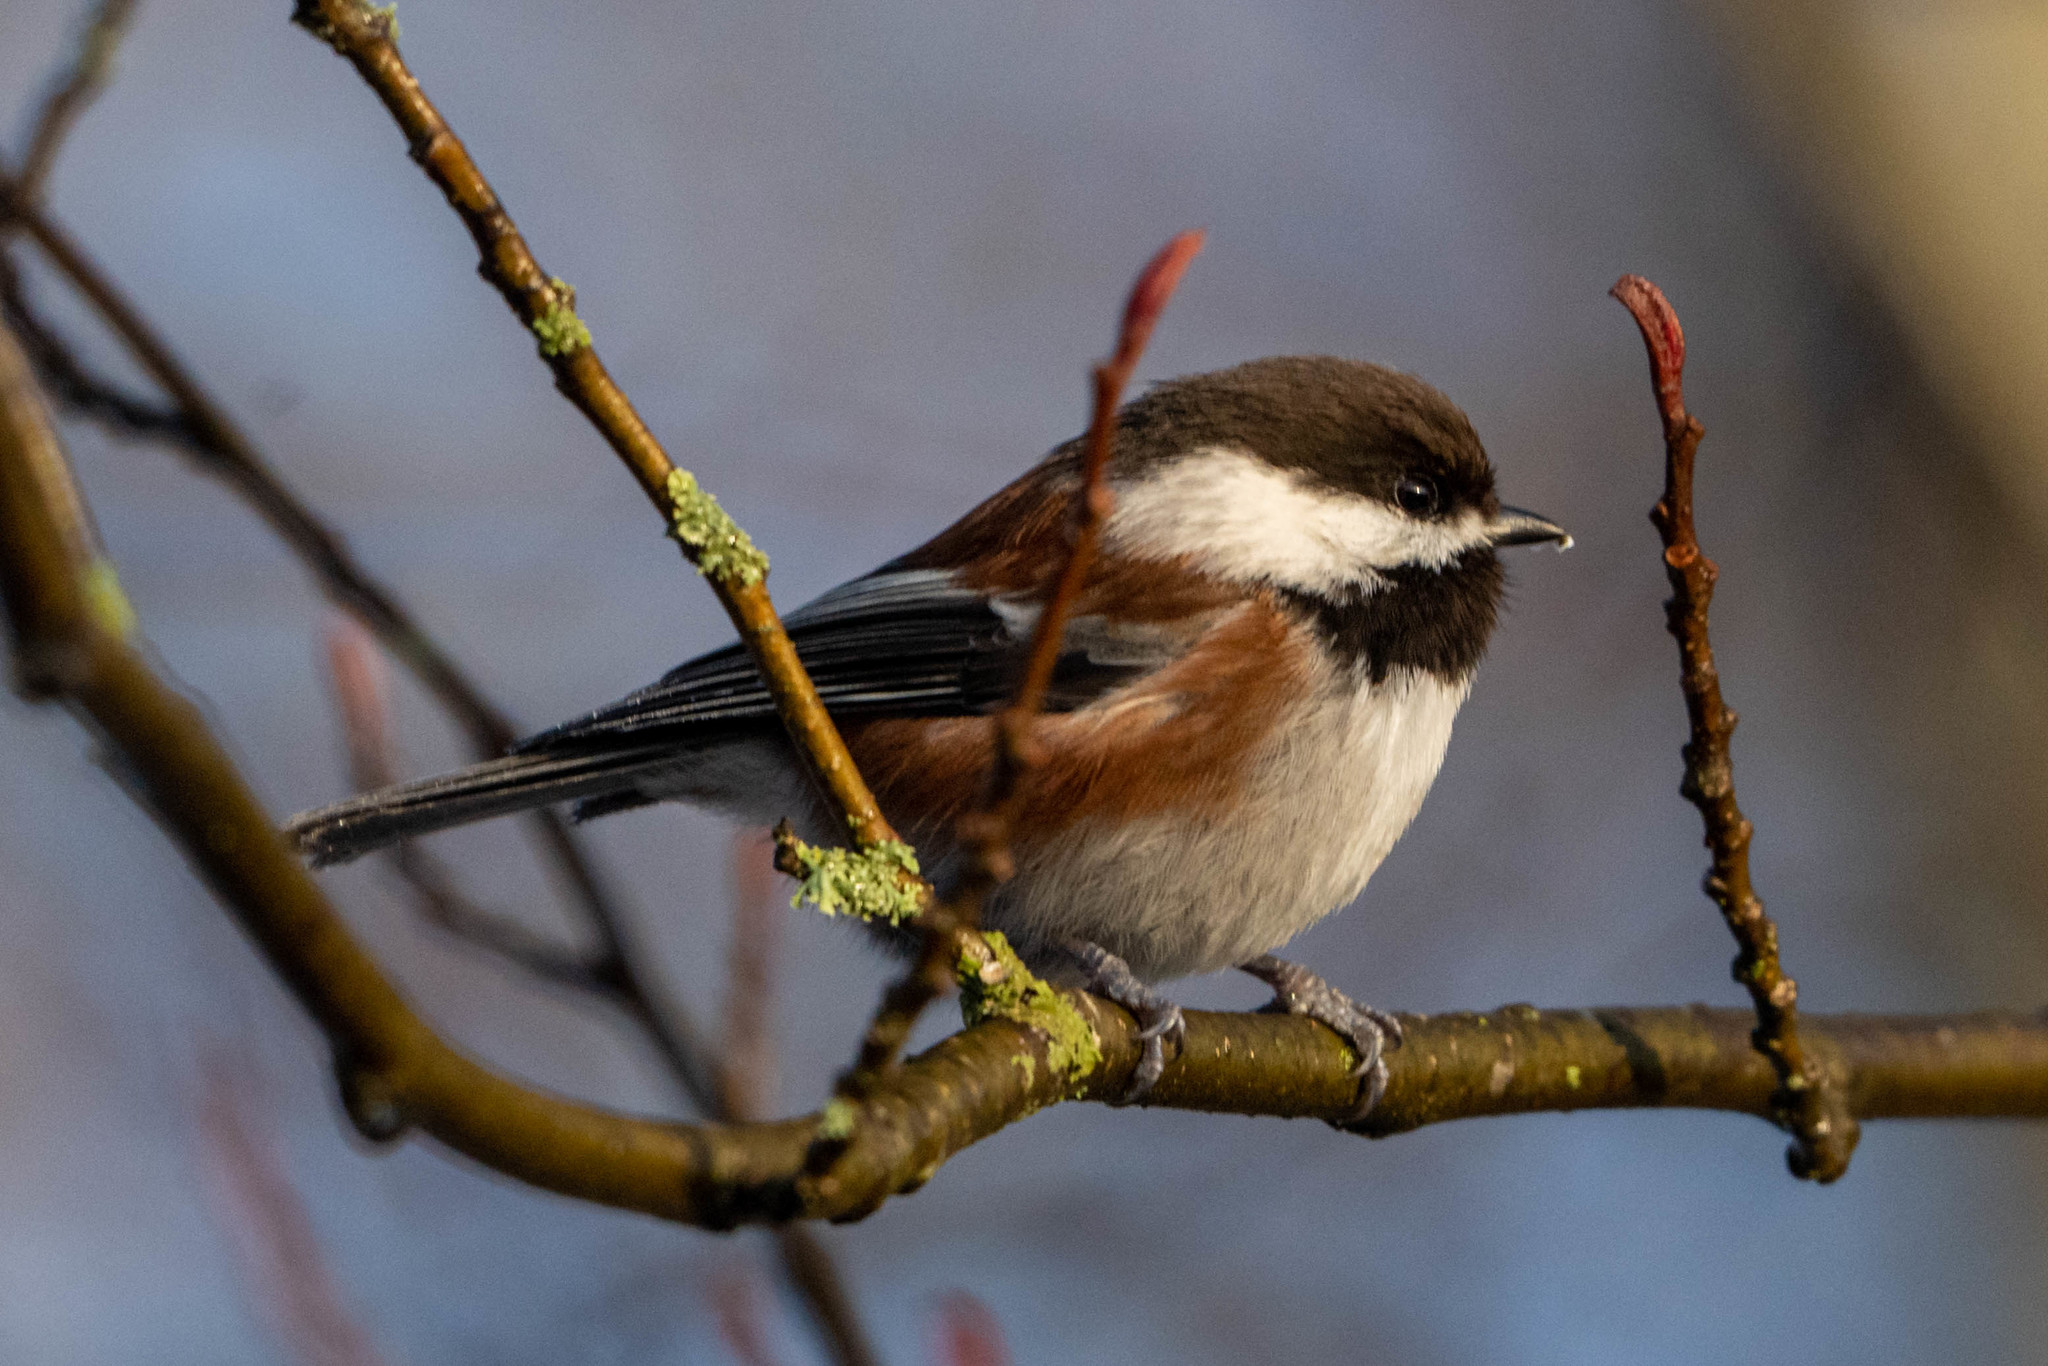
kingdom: Animalia
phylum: Chordata
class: Aves
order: Passeriformes
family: Paridae
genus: Poecile
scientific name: Poecile rufescens
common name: Chestnut-backed chickadee
